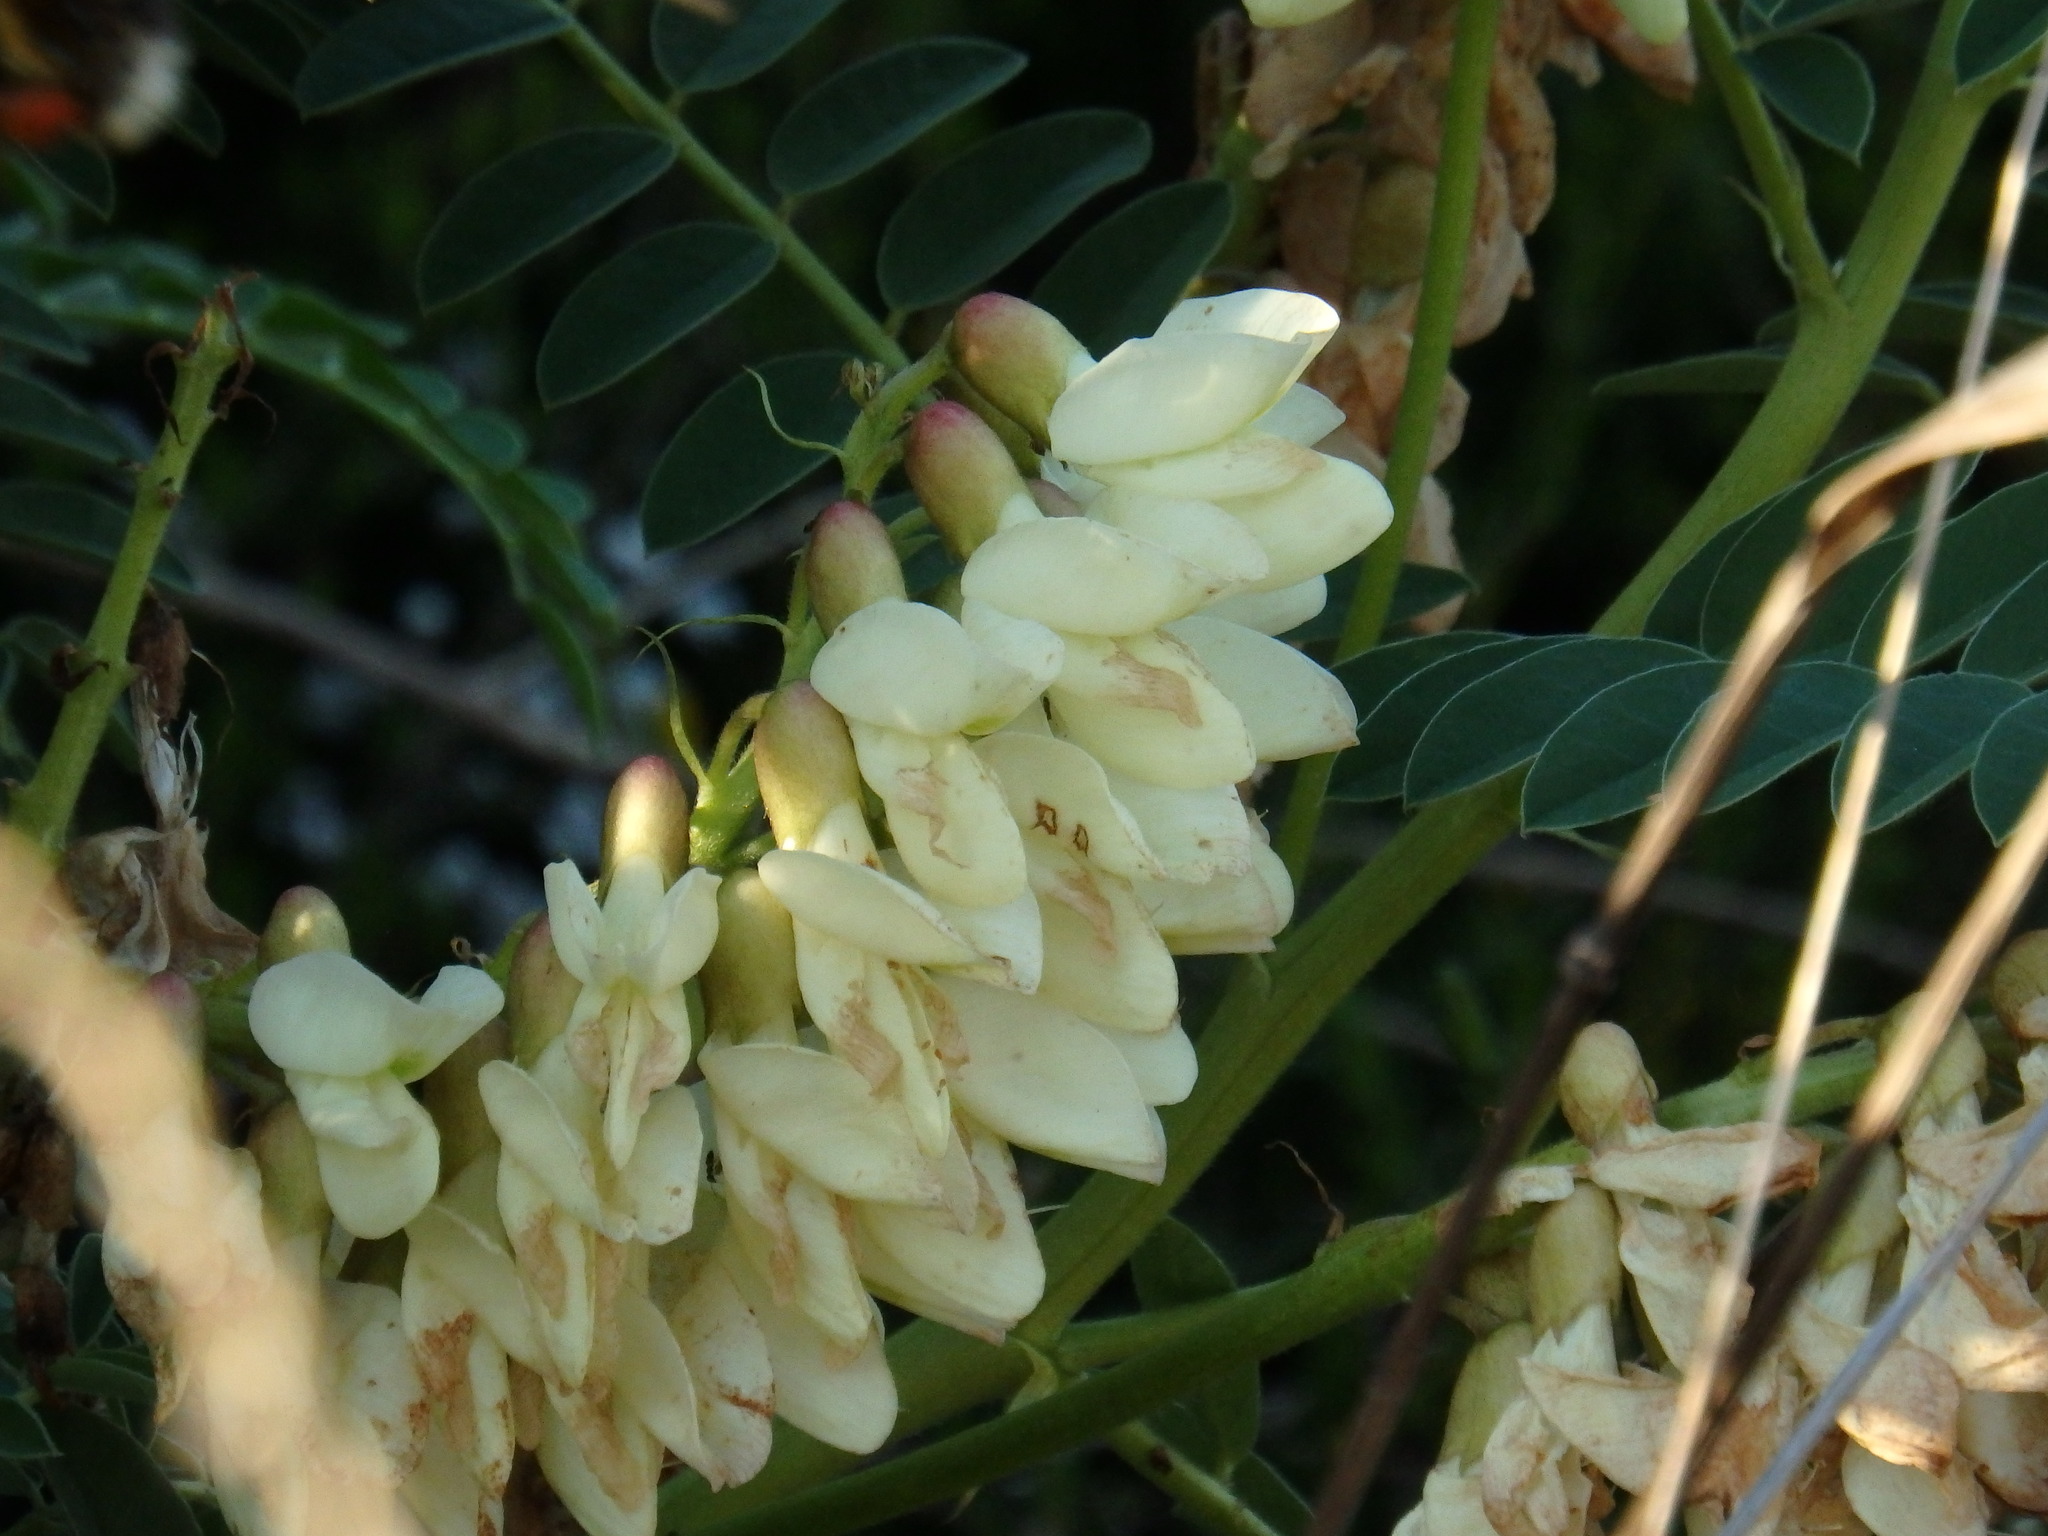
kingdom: Plantae
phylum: Tracheophyta
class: Magnoliopsida
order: Fabales
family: Fabaceae
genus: Erophaca
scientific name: Erophaca baetica
